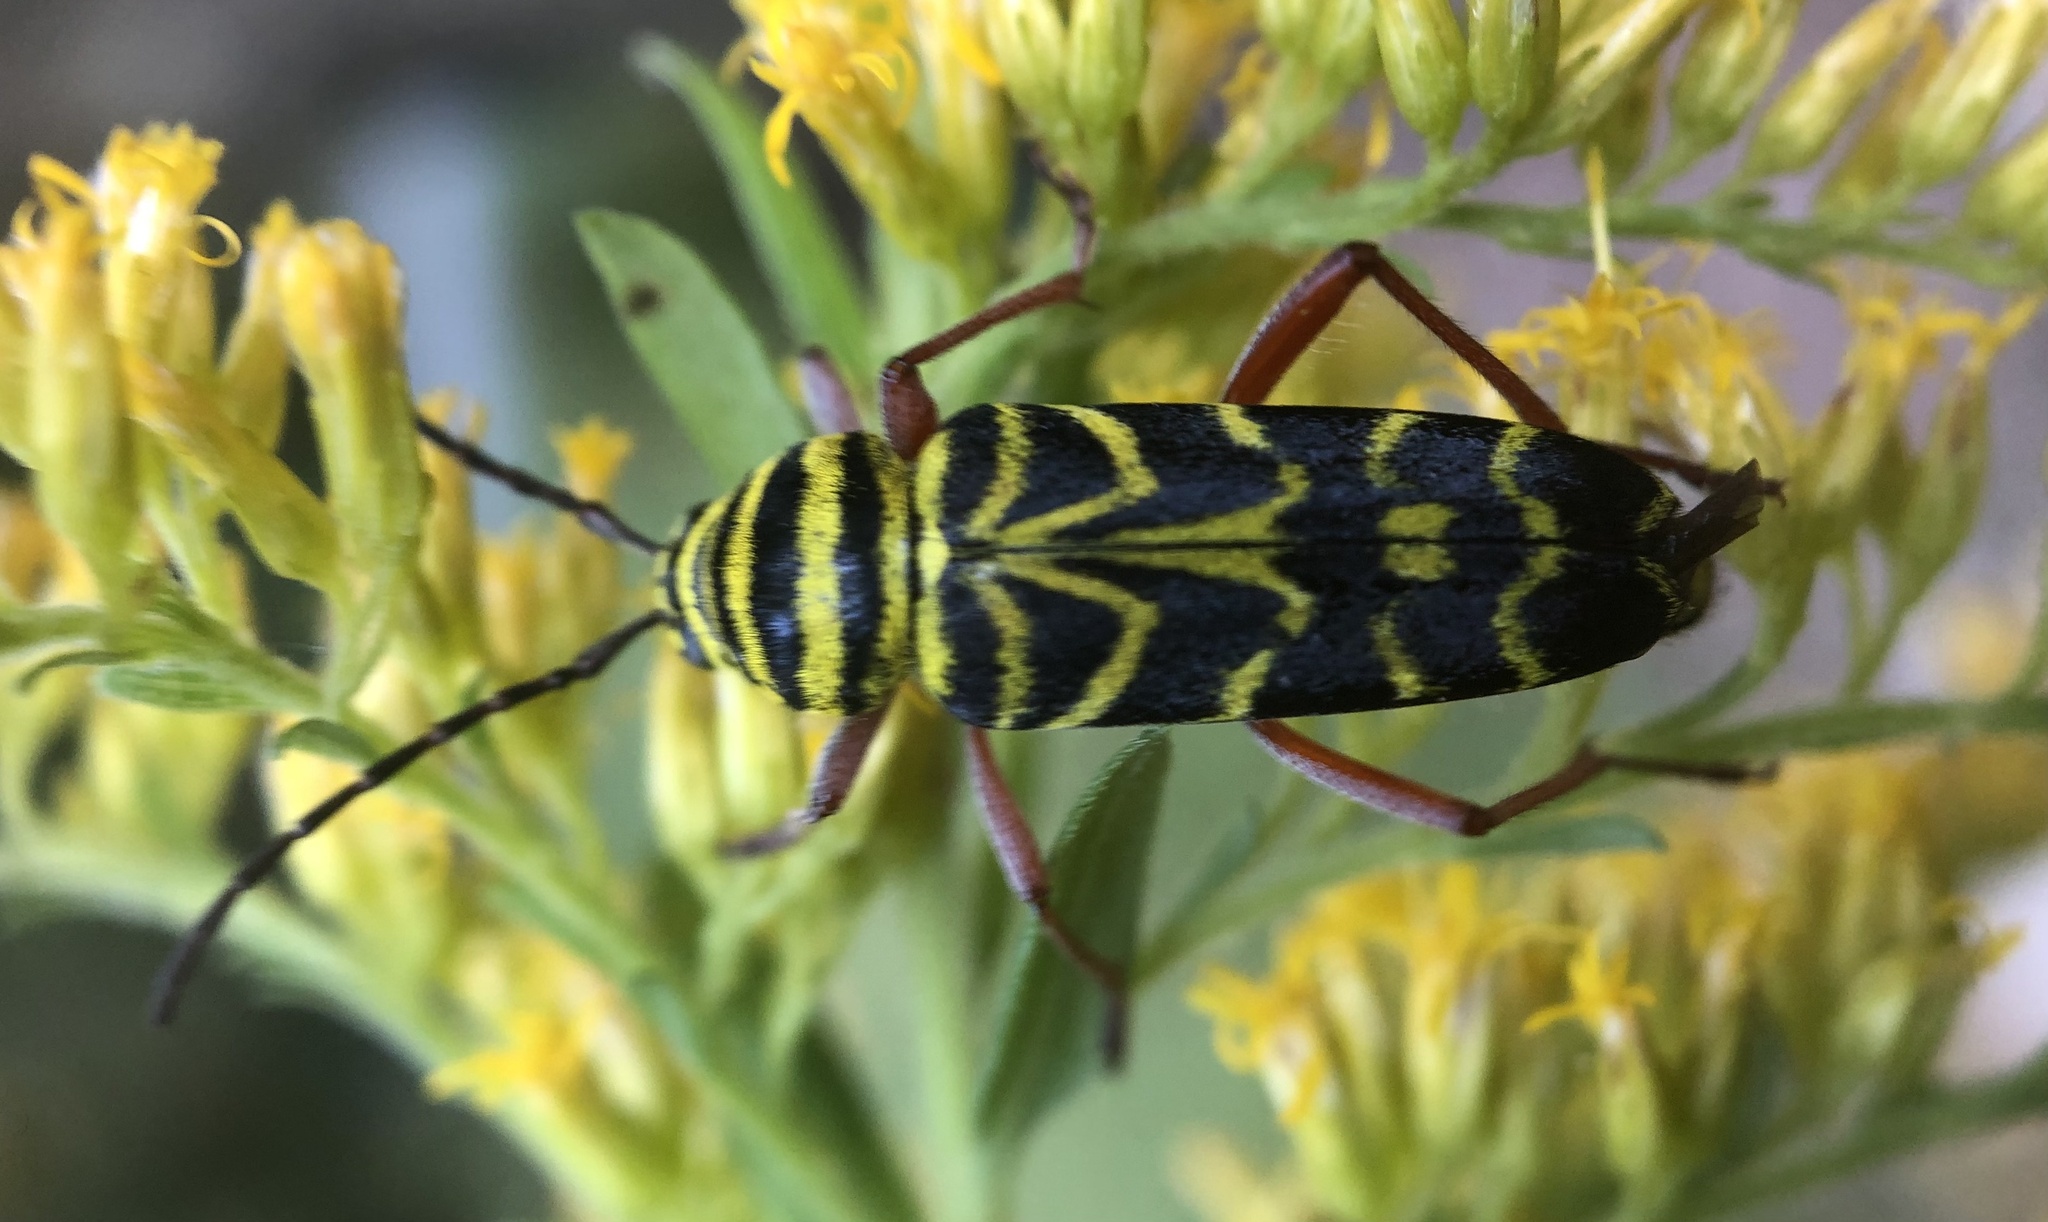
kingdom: Animalia
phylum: Arthropoda
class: Insecta
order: Coleoptera
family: Cerambycidae
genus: Megacyllene
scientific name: Megacyllene robiniae
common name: Locust borer
